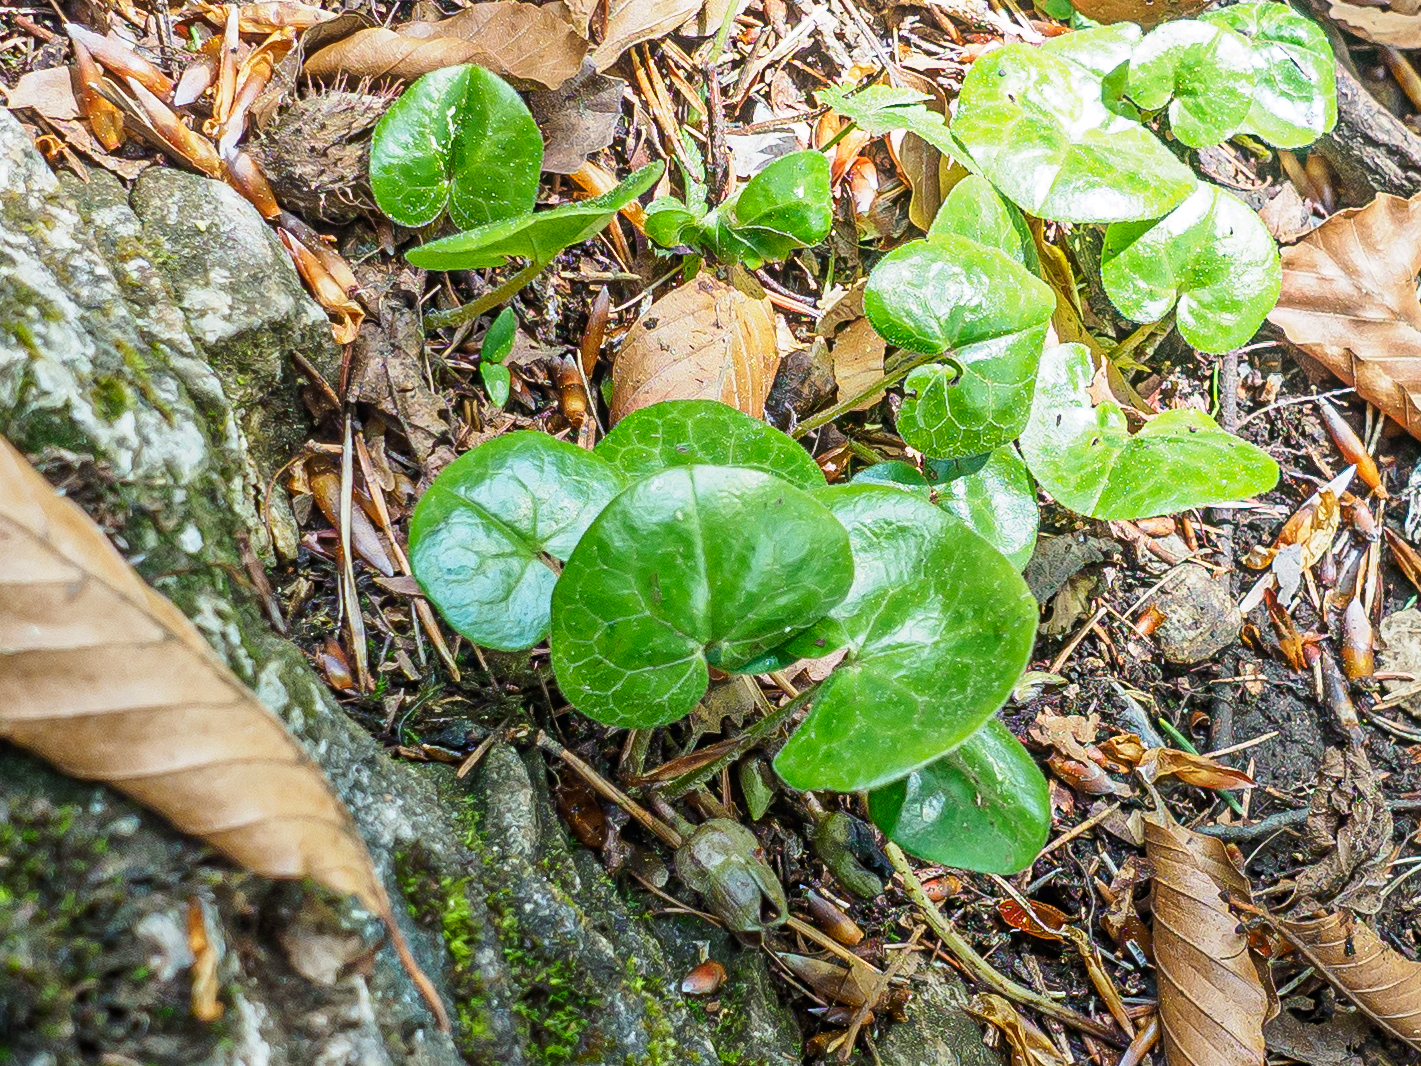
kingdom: Plantae
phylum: Tracheophyta
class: Magnoliopsida
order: Piperales
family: Aristolochiaceae
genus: Asarum
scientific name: Asarum europaeum
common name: Asarabacca
